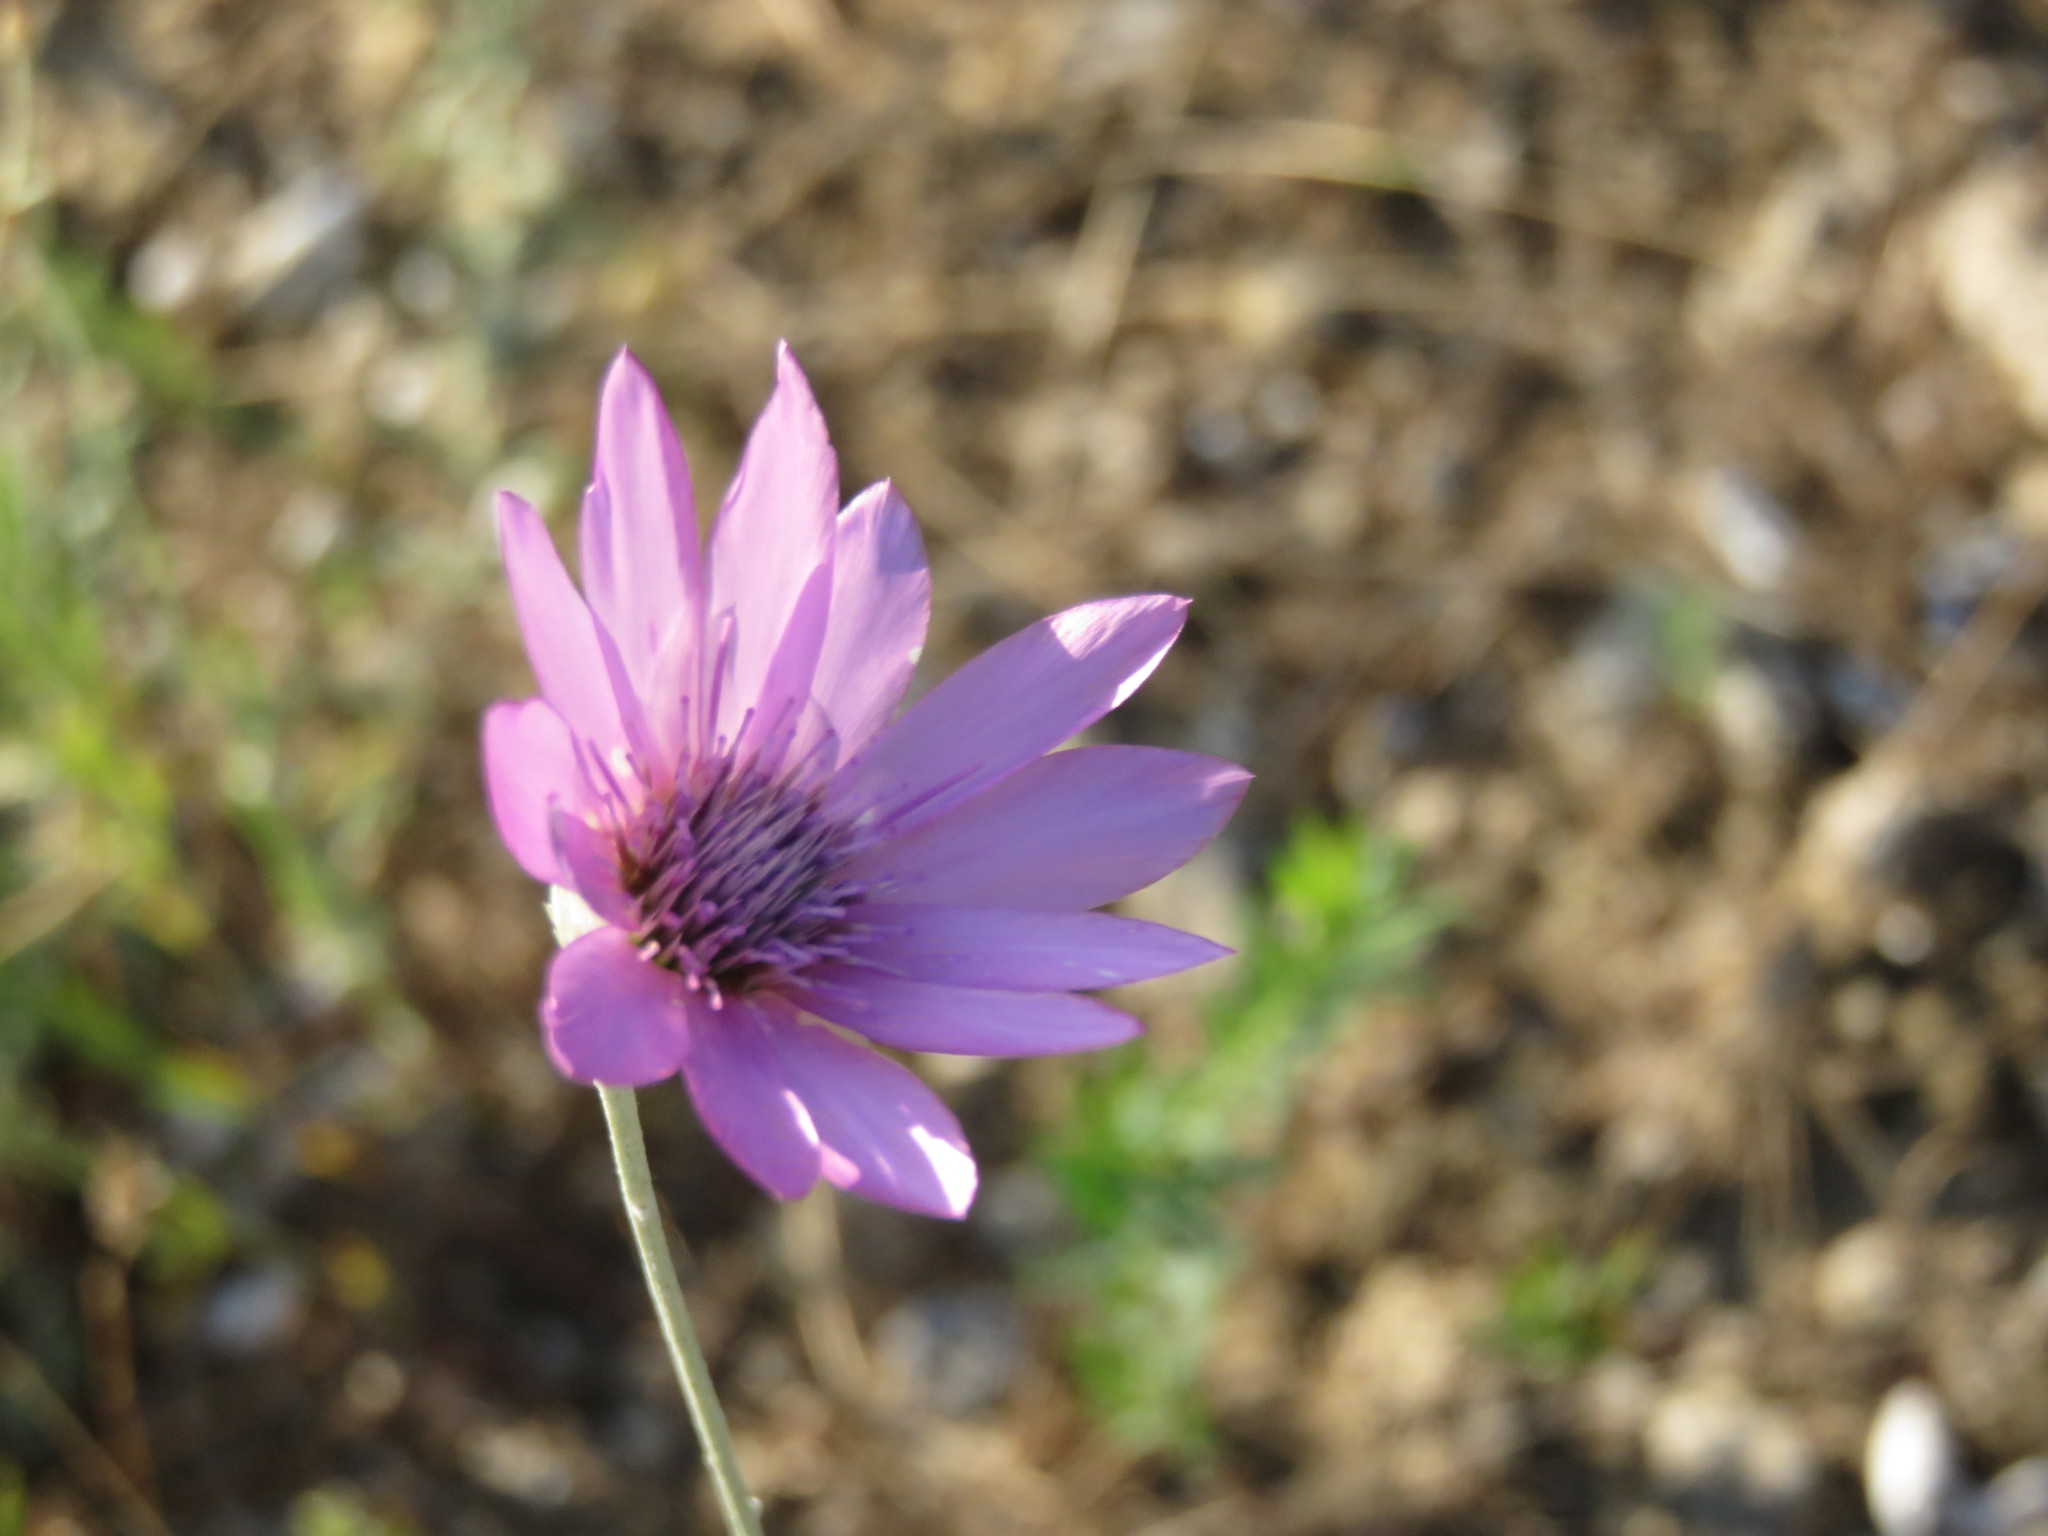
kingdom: Plantae
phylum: Tracheophyta
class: Magnoliopsida
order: Asterales
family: Asteraceae
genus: Xeranthemum
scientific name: Xeranthemum annuum
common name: Immortelle
